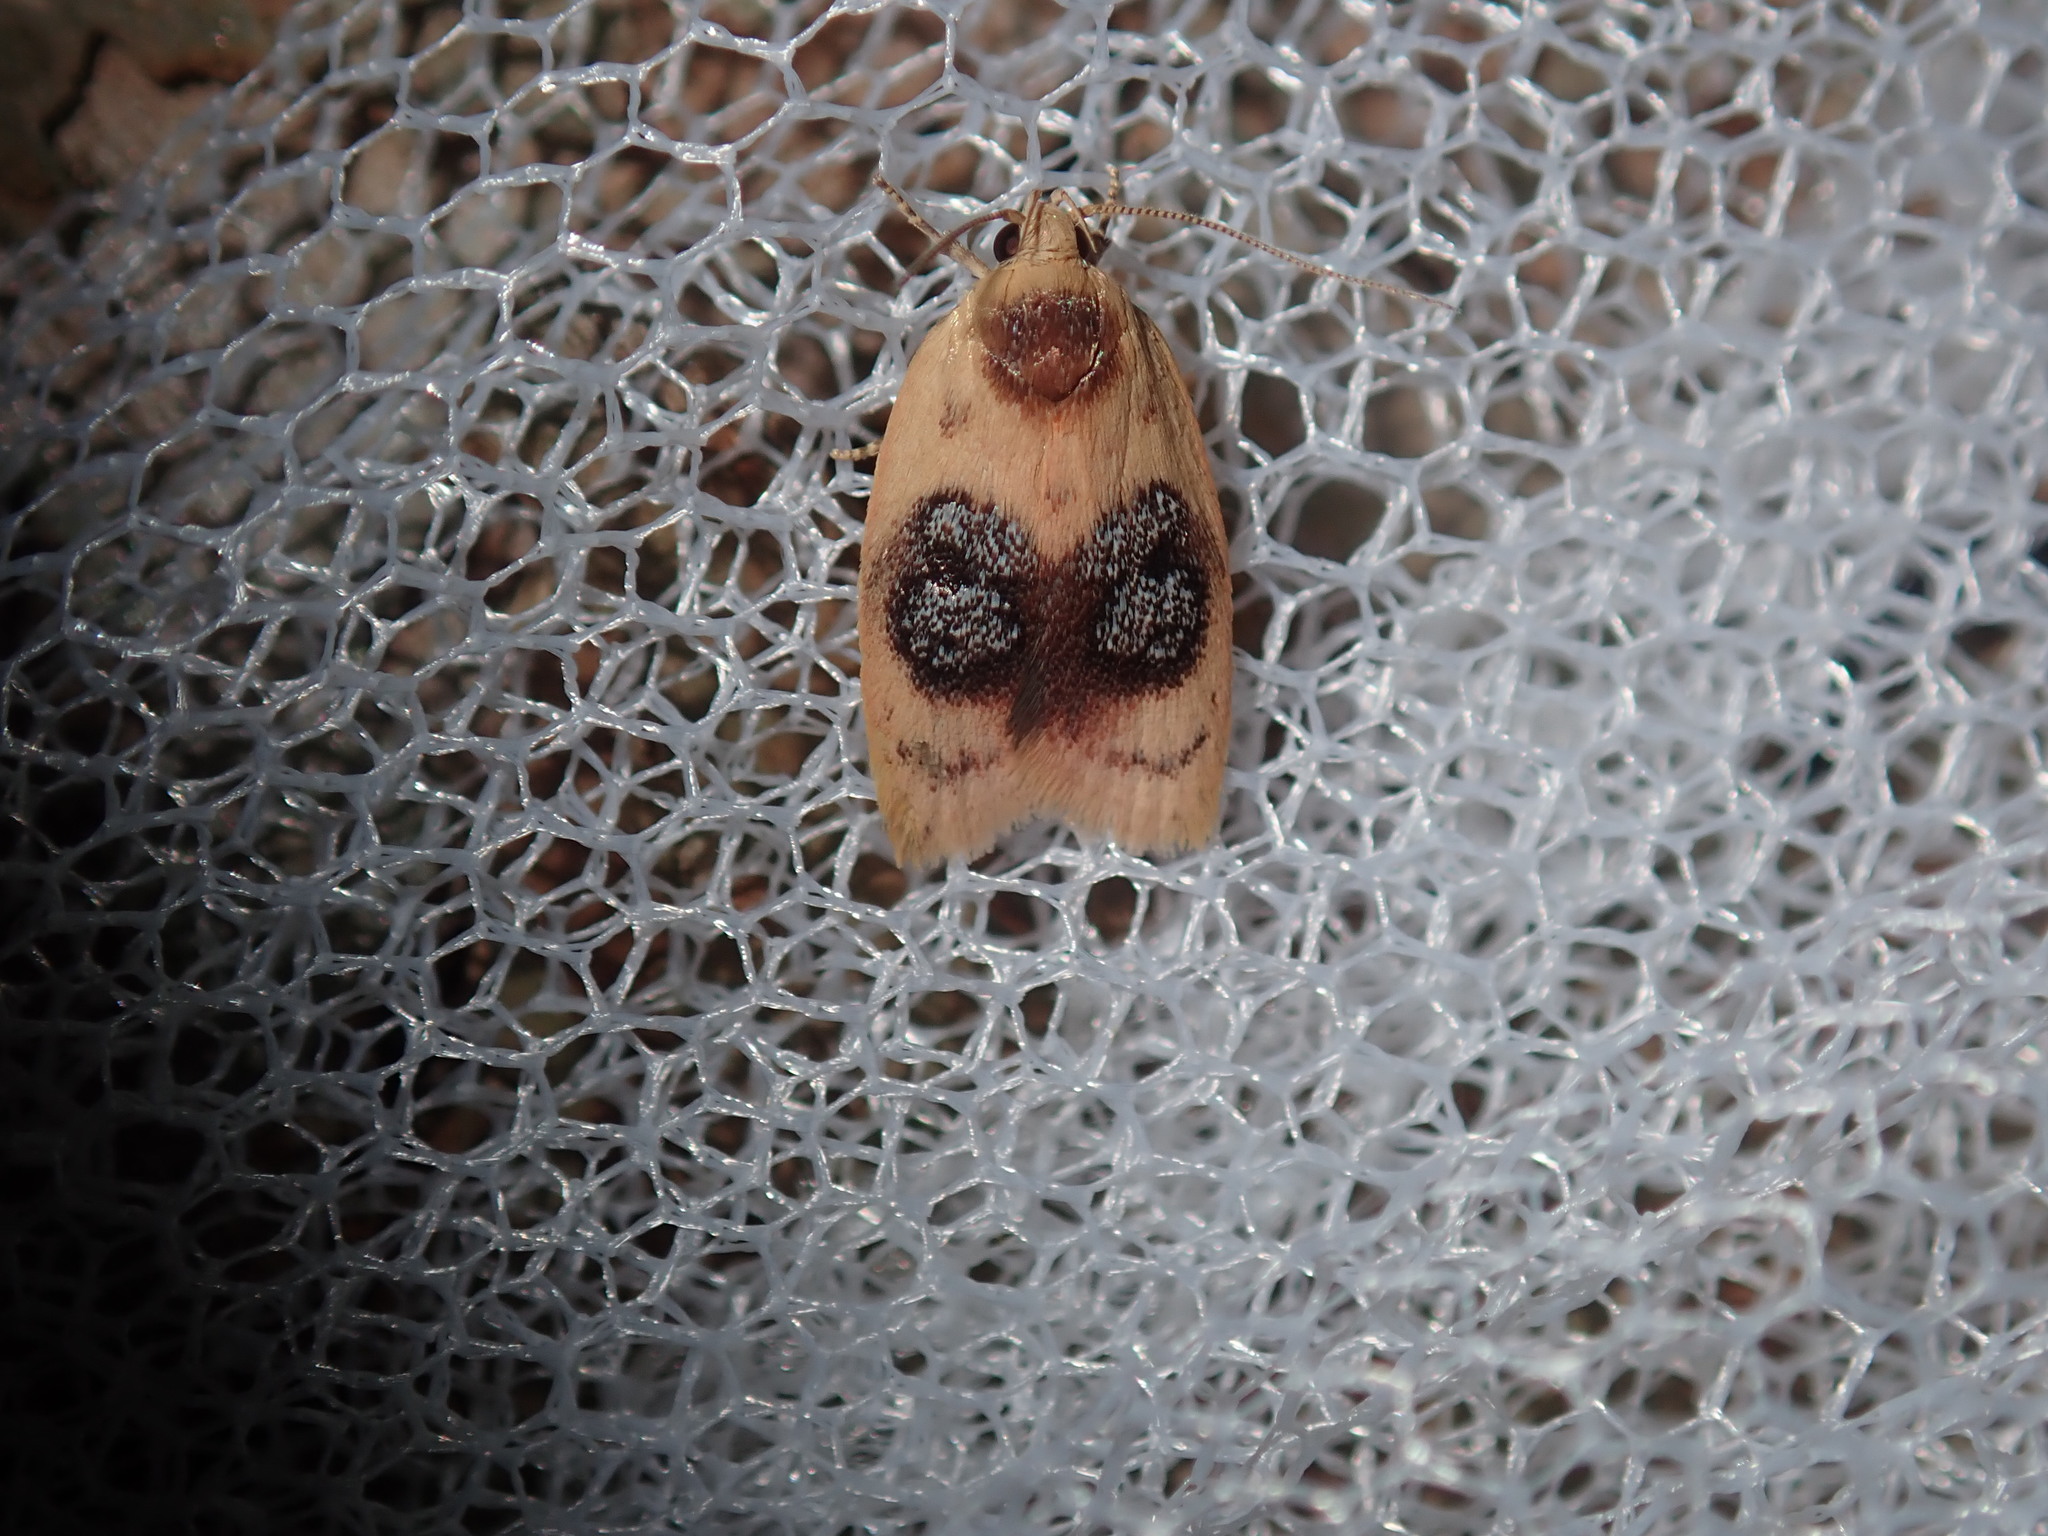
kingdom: Animalia
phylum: Arthropoda
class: Insecta
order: Lepidoptera
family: Oecophoridae
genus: Garrha
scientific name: Garrha ocellifera
